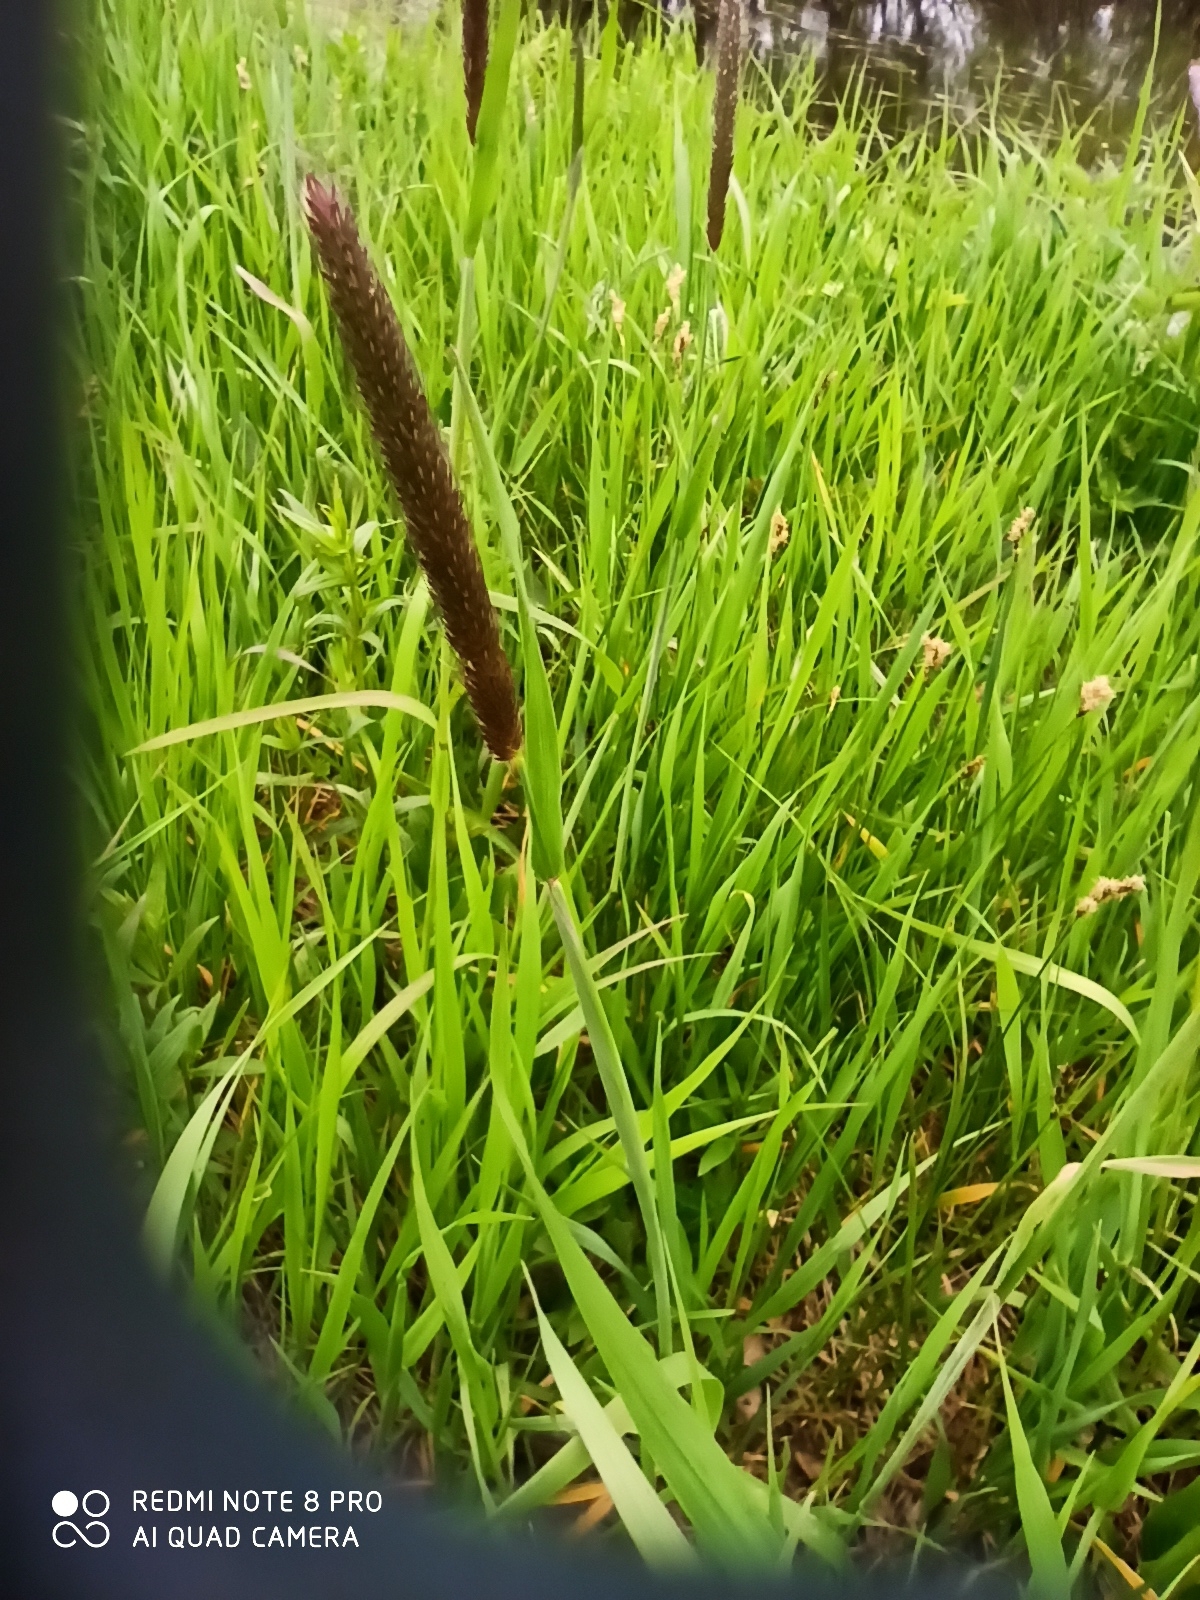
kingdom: Plantae
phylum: Tracheophyta
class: Liliopsida
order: Poales
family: Poaceae
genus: Alopecurus
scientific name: Alopecurus pratensis
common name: Meadow foxtail
